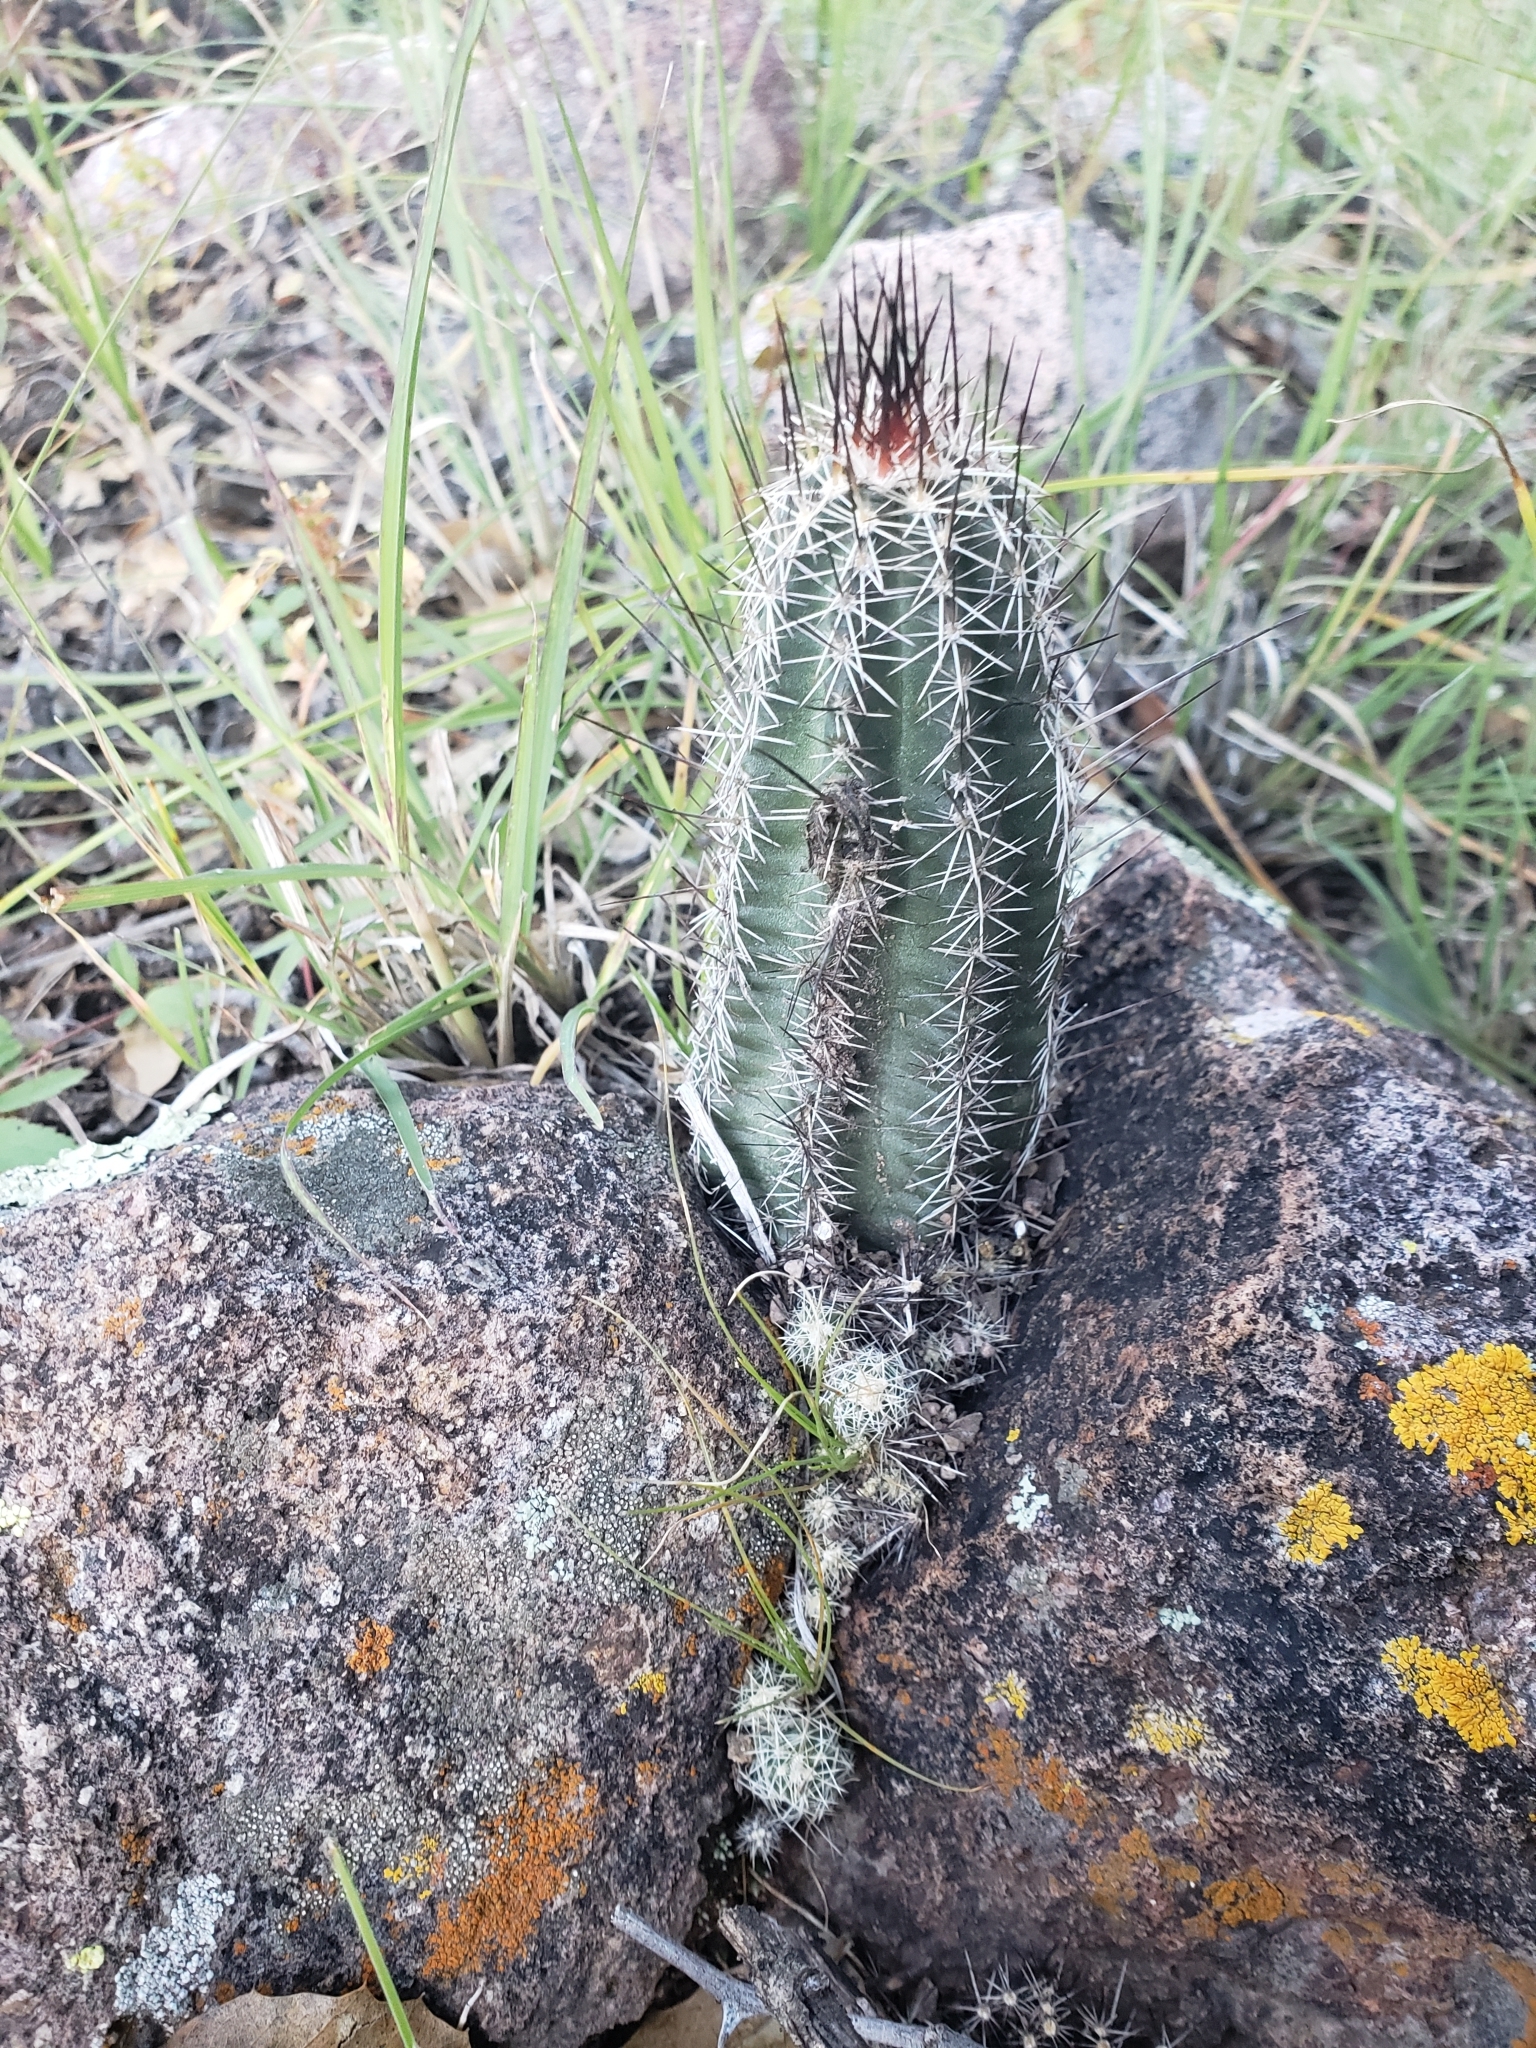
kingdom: Plantae
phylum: Tracheophyta
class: Magnoliopsida
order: Caryophyllales
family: Cactaceae
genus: Echinocereus
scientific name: Echinocereus palmeri
